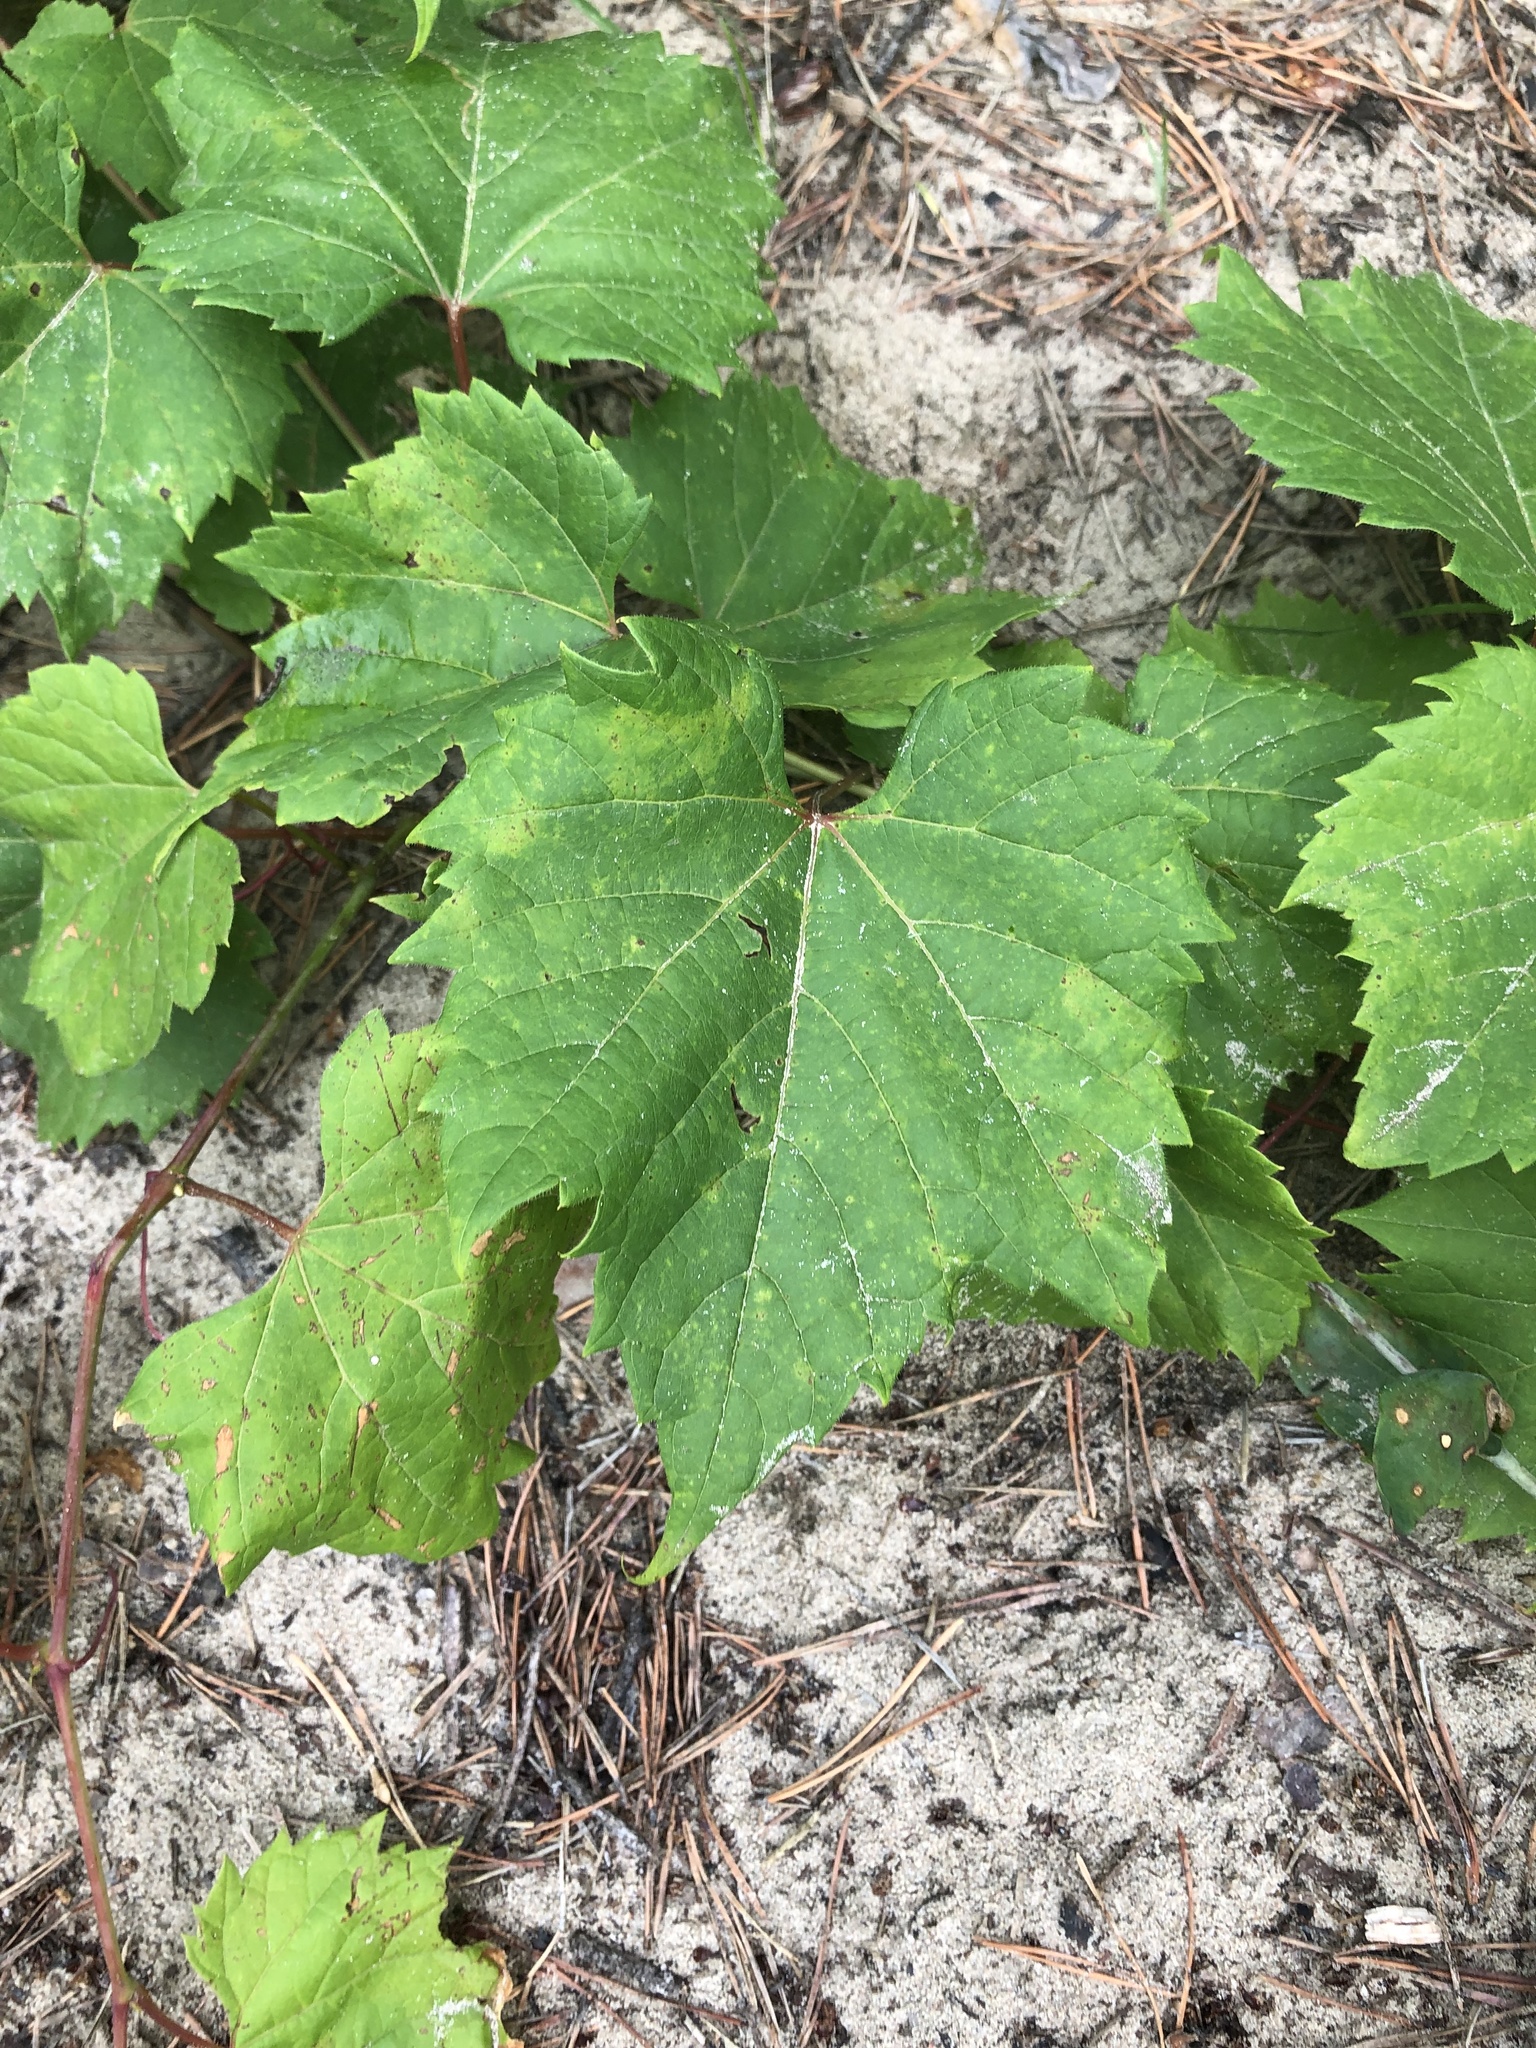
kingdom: Plantae
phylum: Tracheophyta
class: Magnoliopsida
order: Vitales
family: Vitaceae
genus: Vitis
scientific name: Vitis riparia
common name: Frost grape
